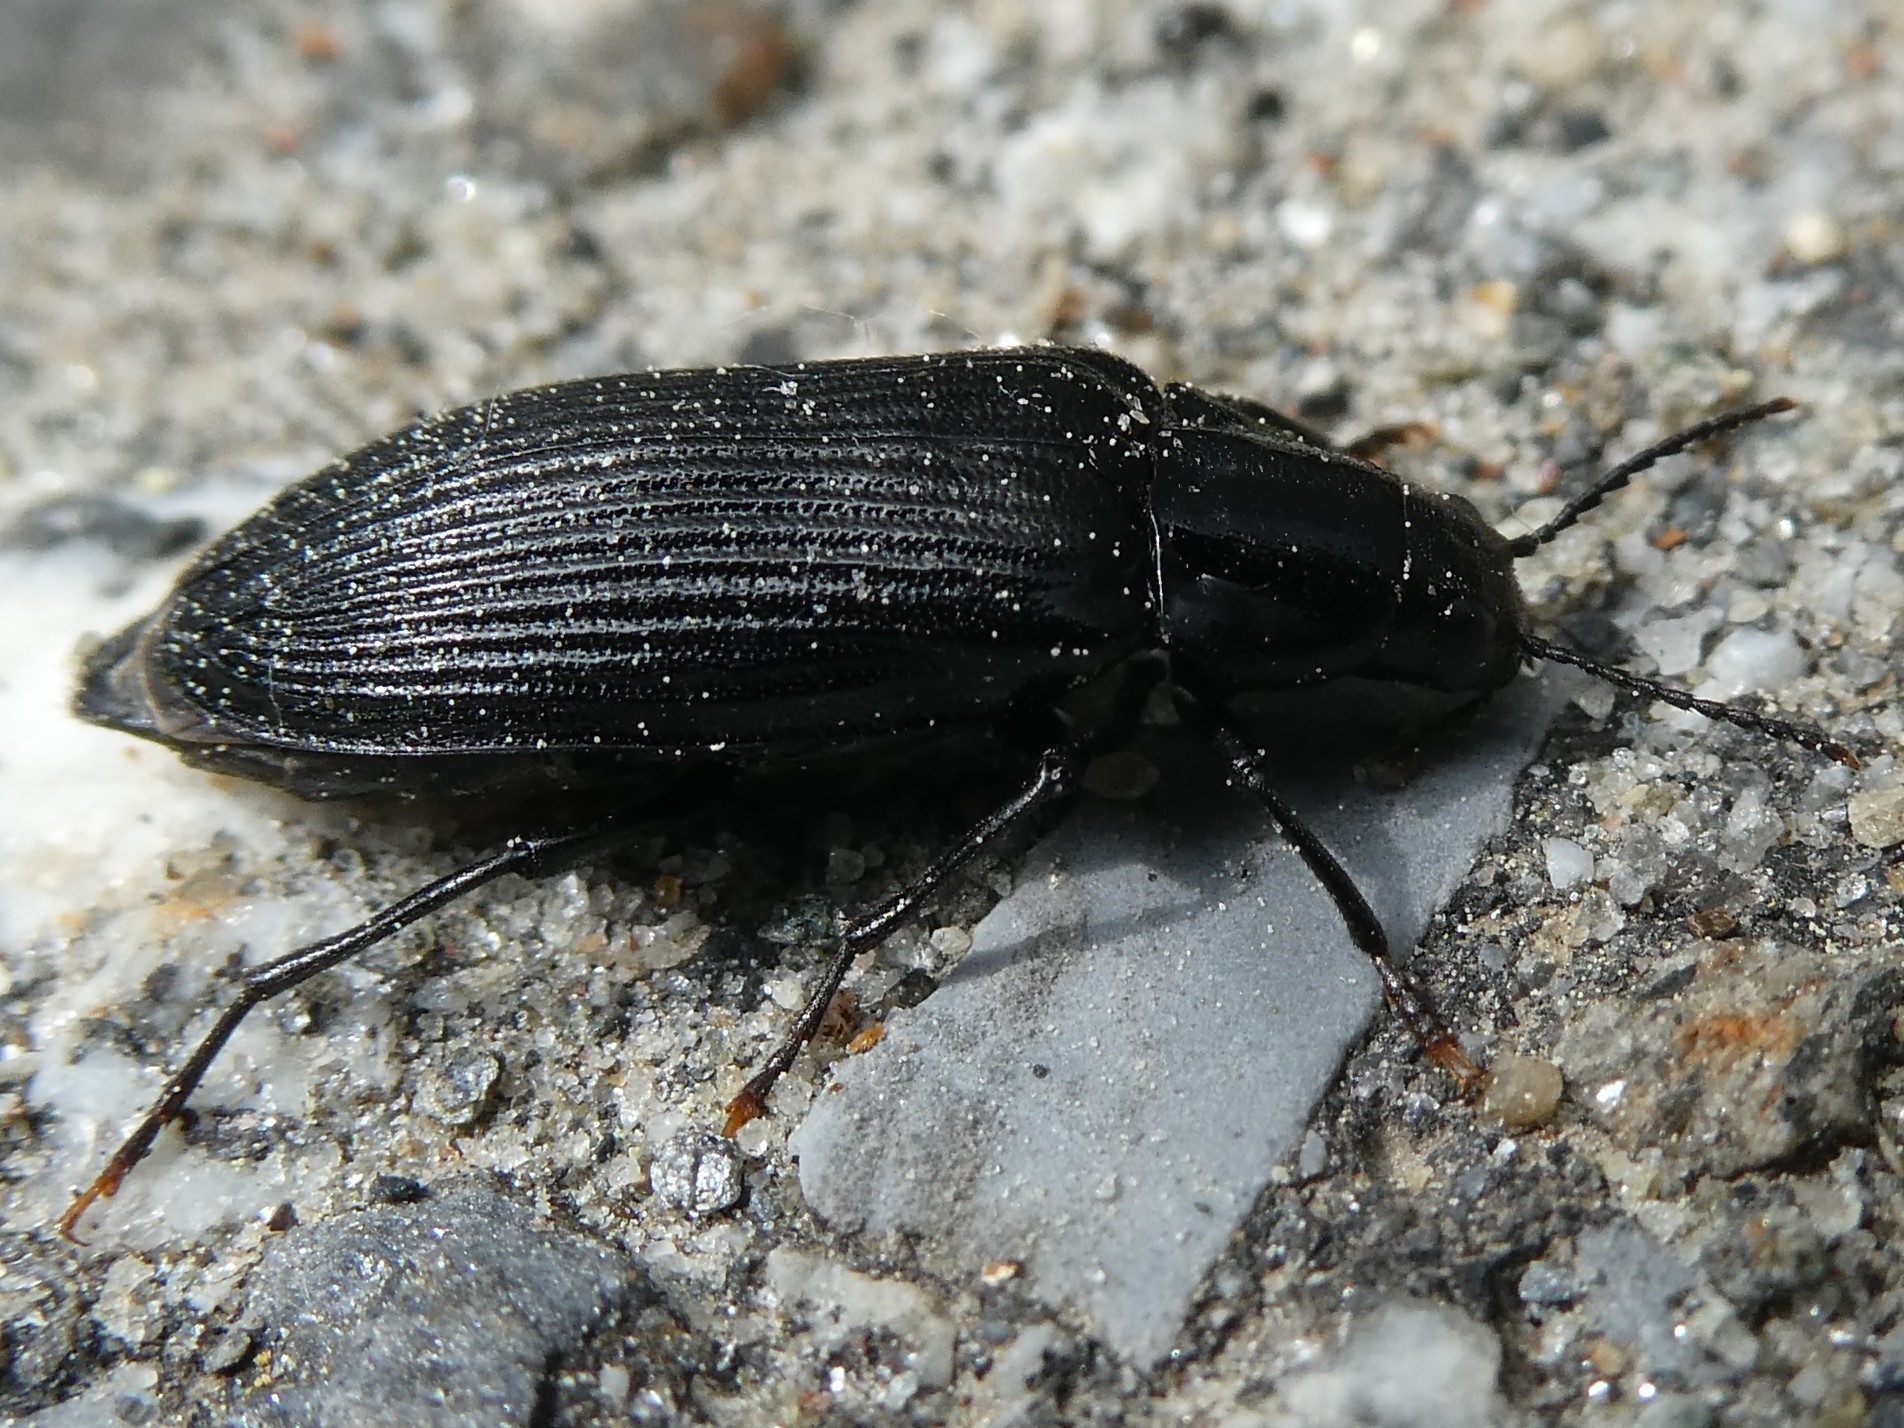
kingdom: Animalia
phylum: Arthropoda
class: Insecta
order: Coleoptera
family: Melandryidae
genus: Melandrya
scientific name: Melandrya striata
